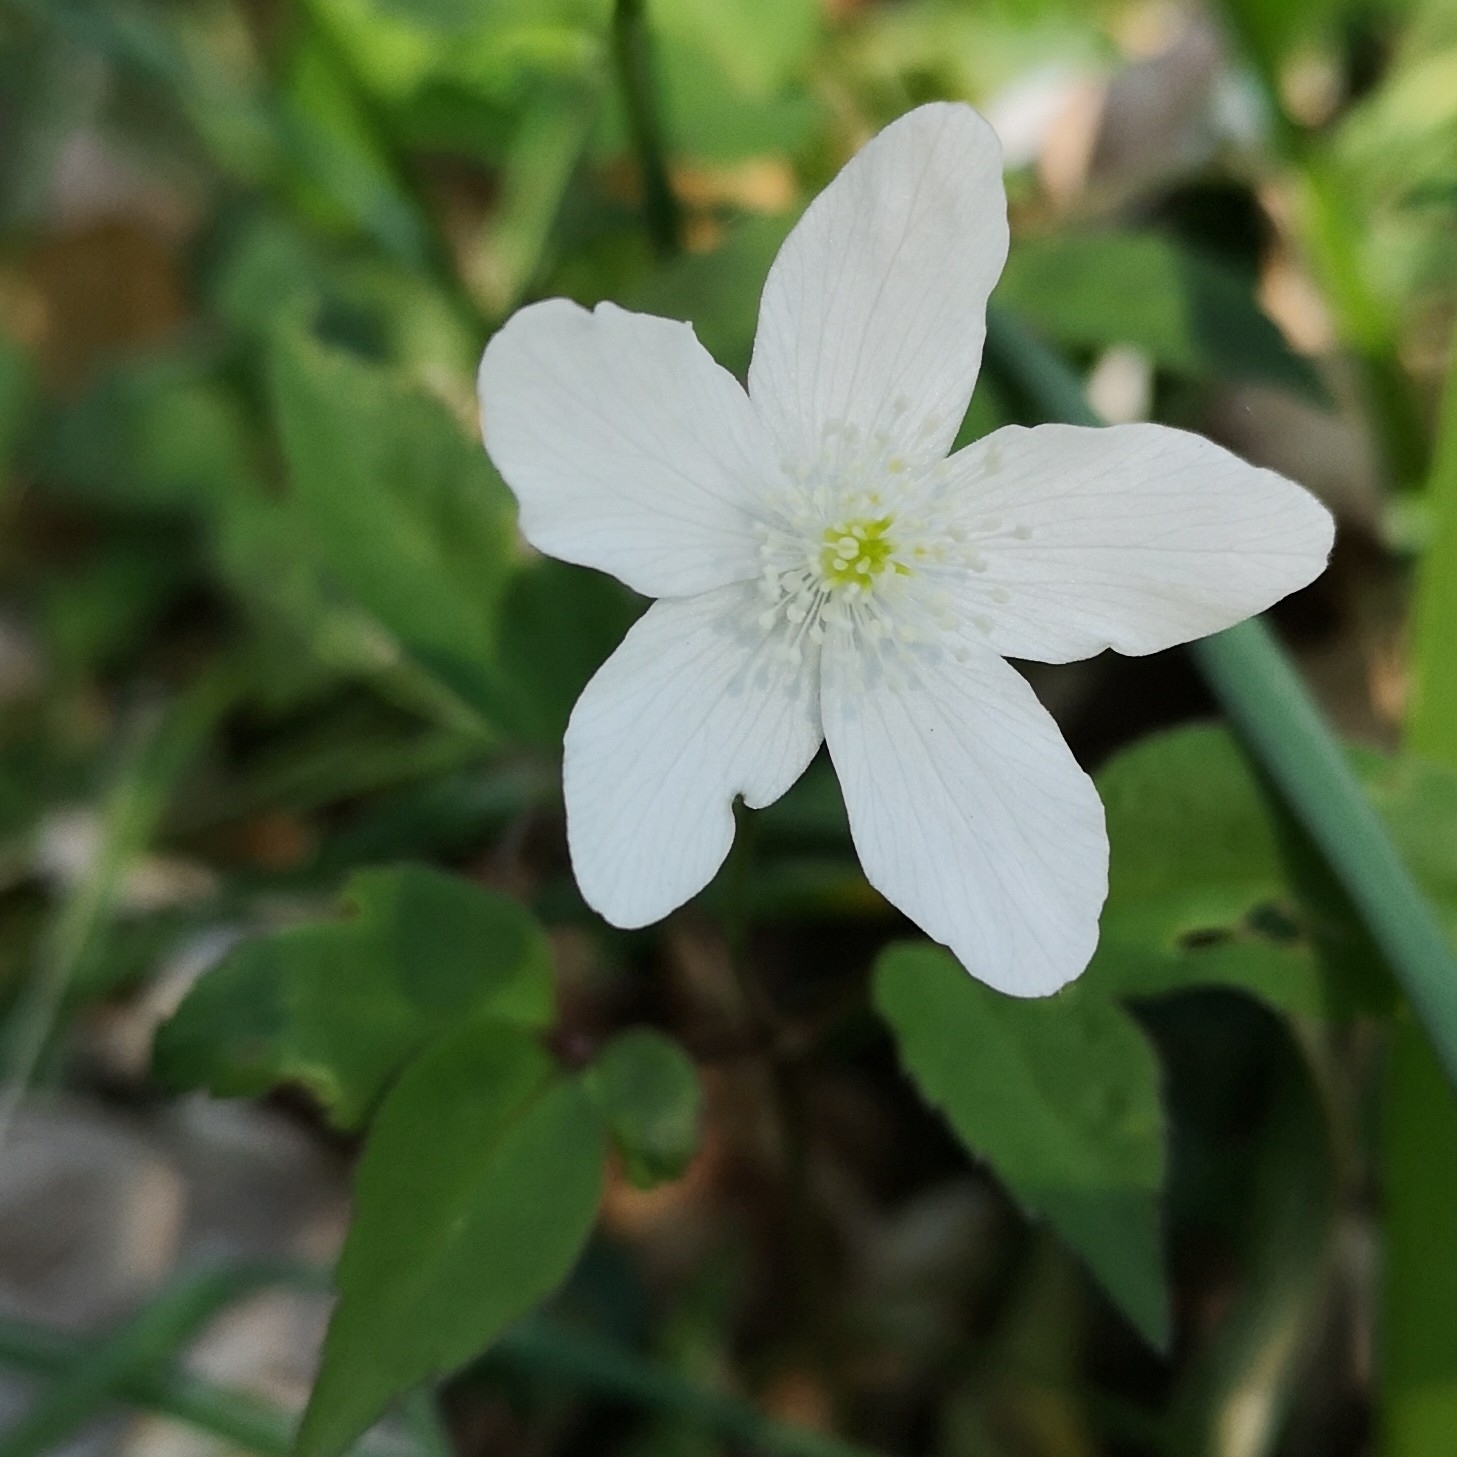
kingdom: Plantae
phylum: Tracheophyta
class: Magnoliopsida
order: Ranunculales
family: Ranunculaceae
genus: Anemone
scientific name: Anemone trifolia
